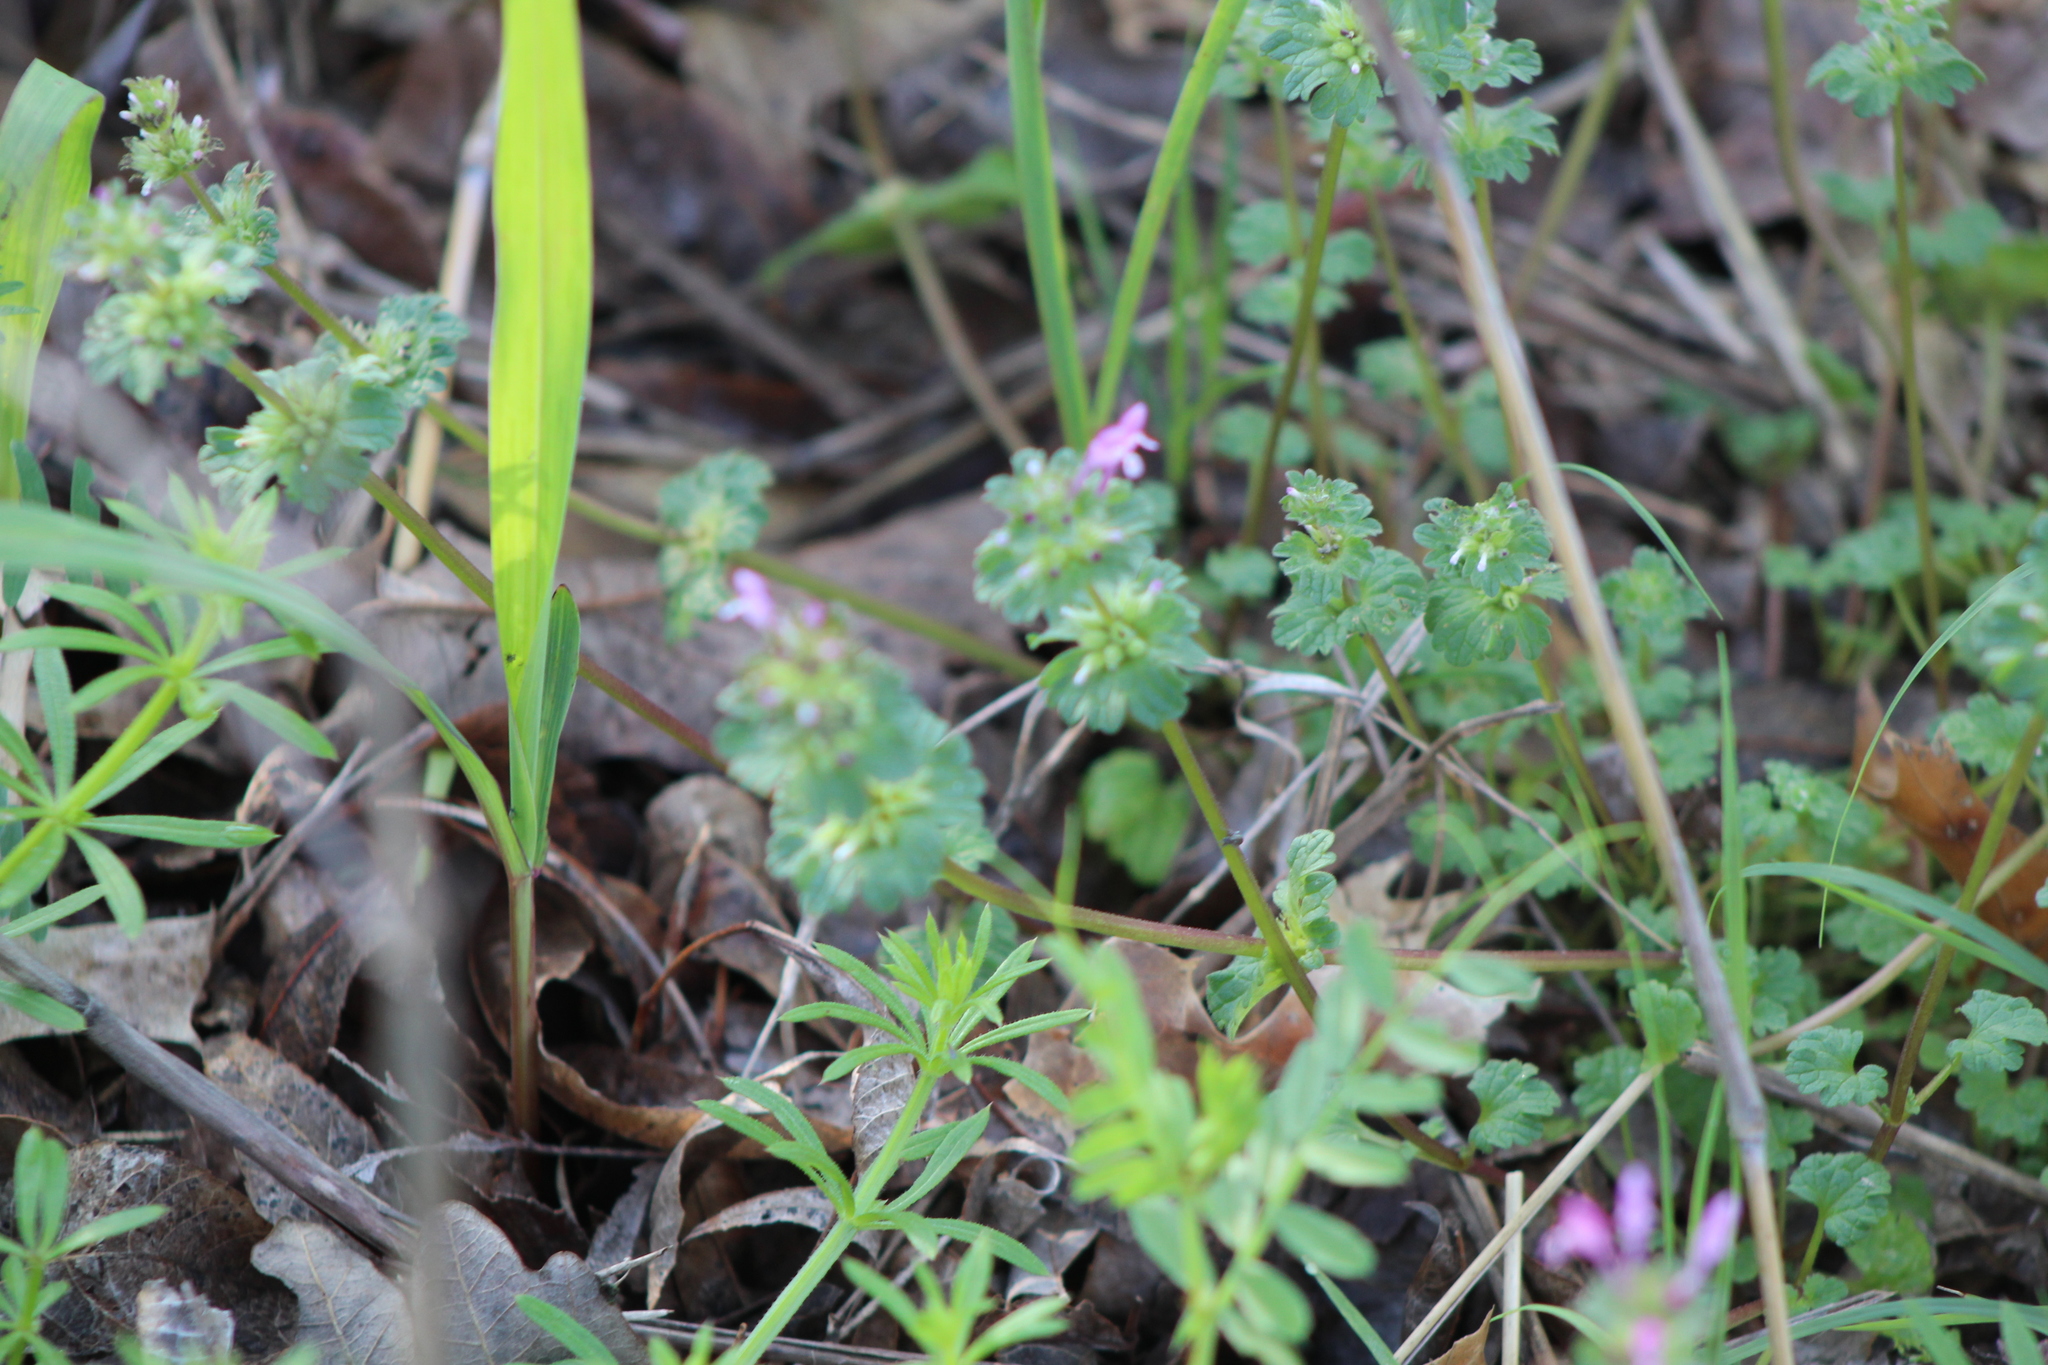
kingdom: Plantae
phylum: Tracheophyta
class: Magnoliopsida
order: Lamiales
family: Lamiaceae
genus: Lamium
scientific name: Lamium amplexicaule
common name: Henbit dead-nettle
